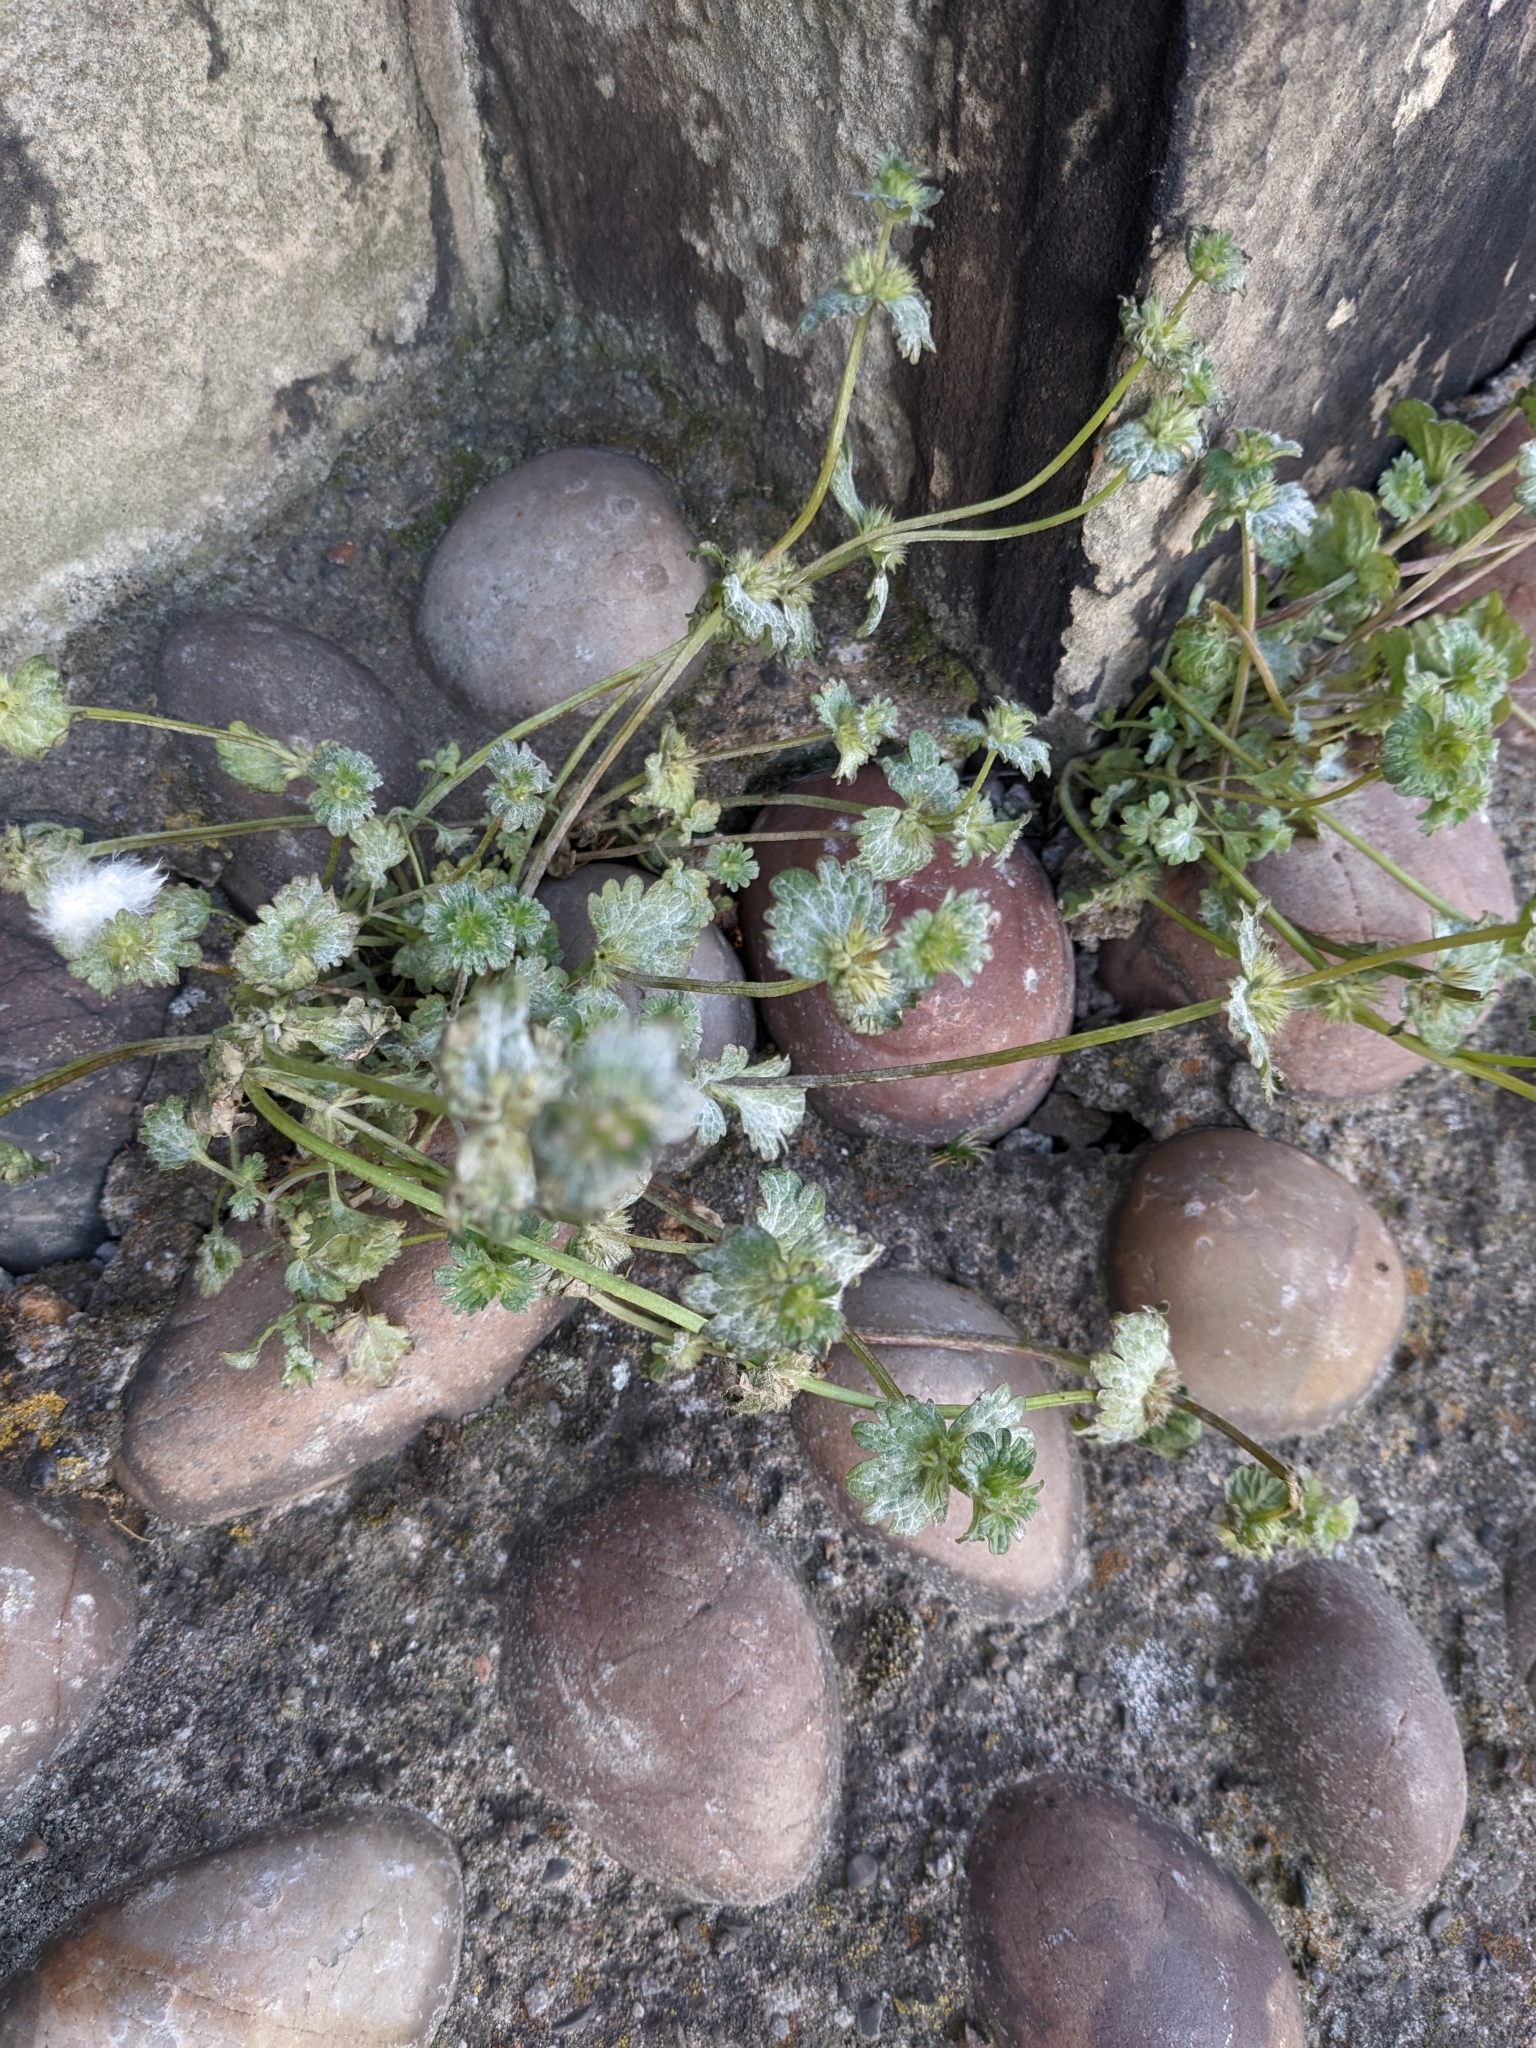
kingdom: Plantae
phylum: Tracheophyta
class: Magnoliopsida
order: Lamiales
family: Lamiaceae
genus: Lamium
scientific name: Lamium amplexicaule
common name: Henbit dead-nettle
